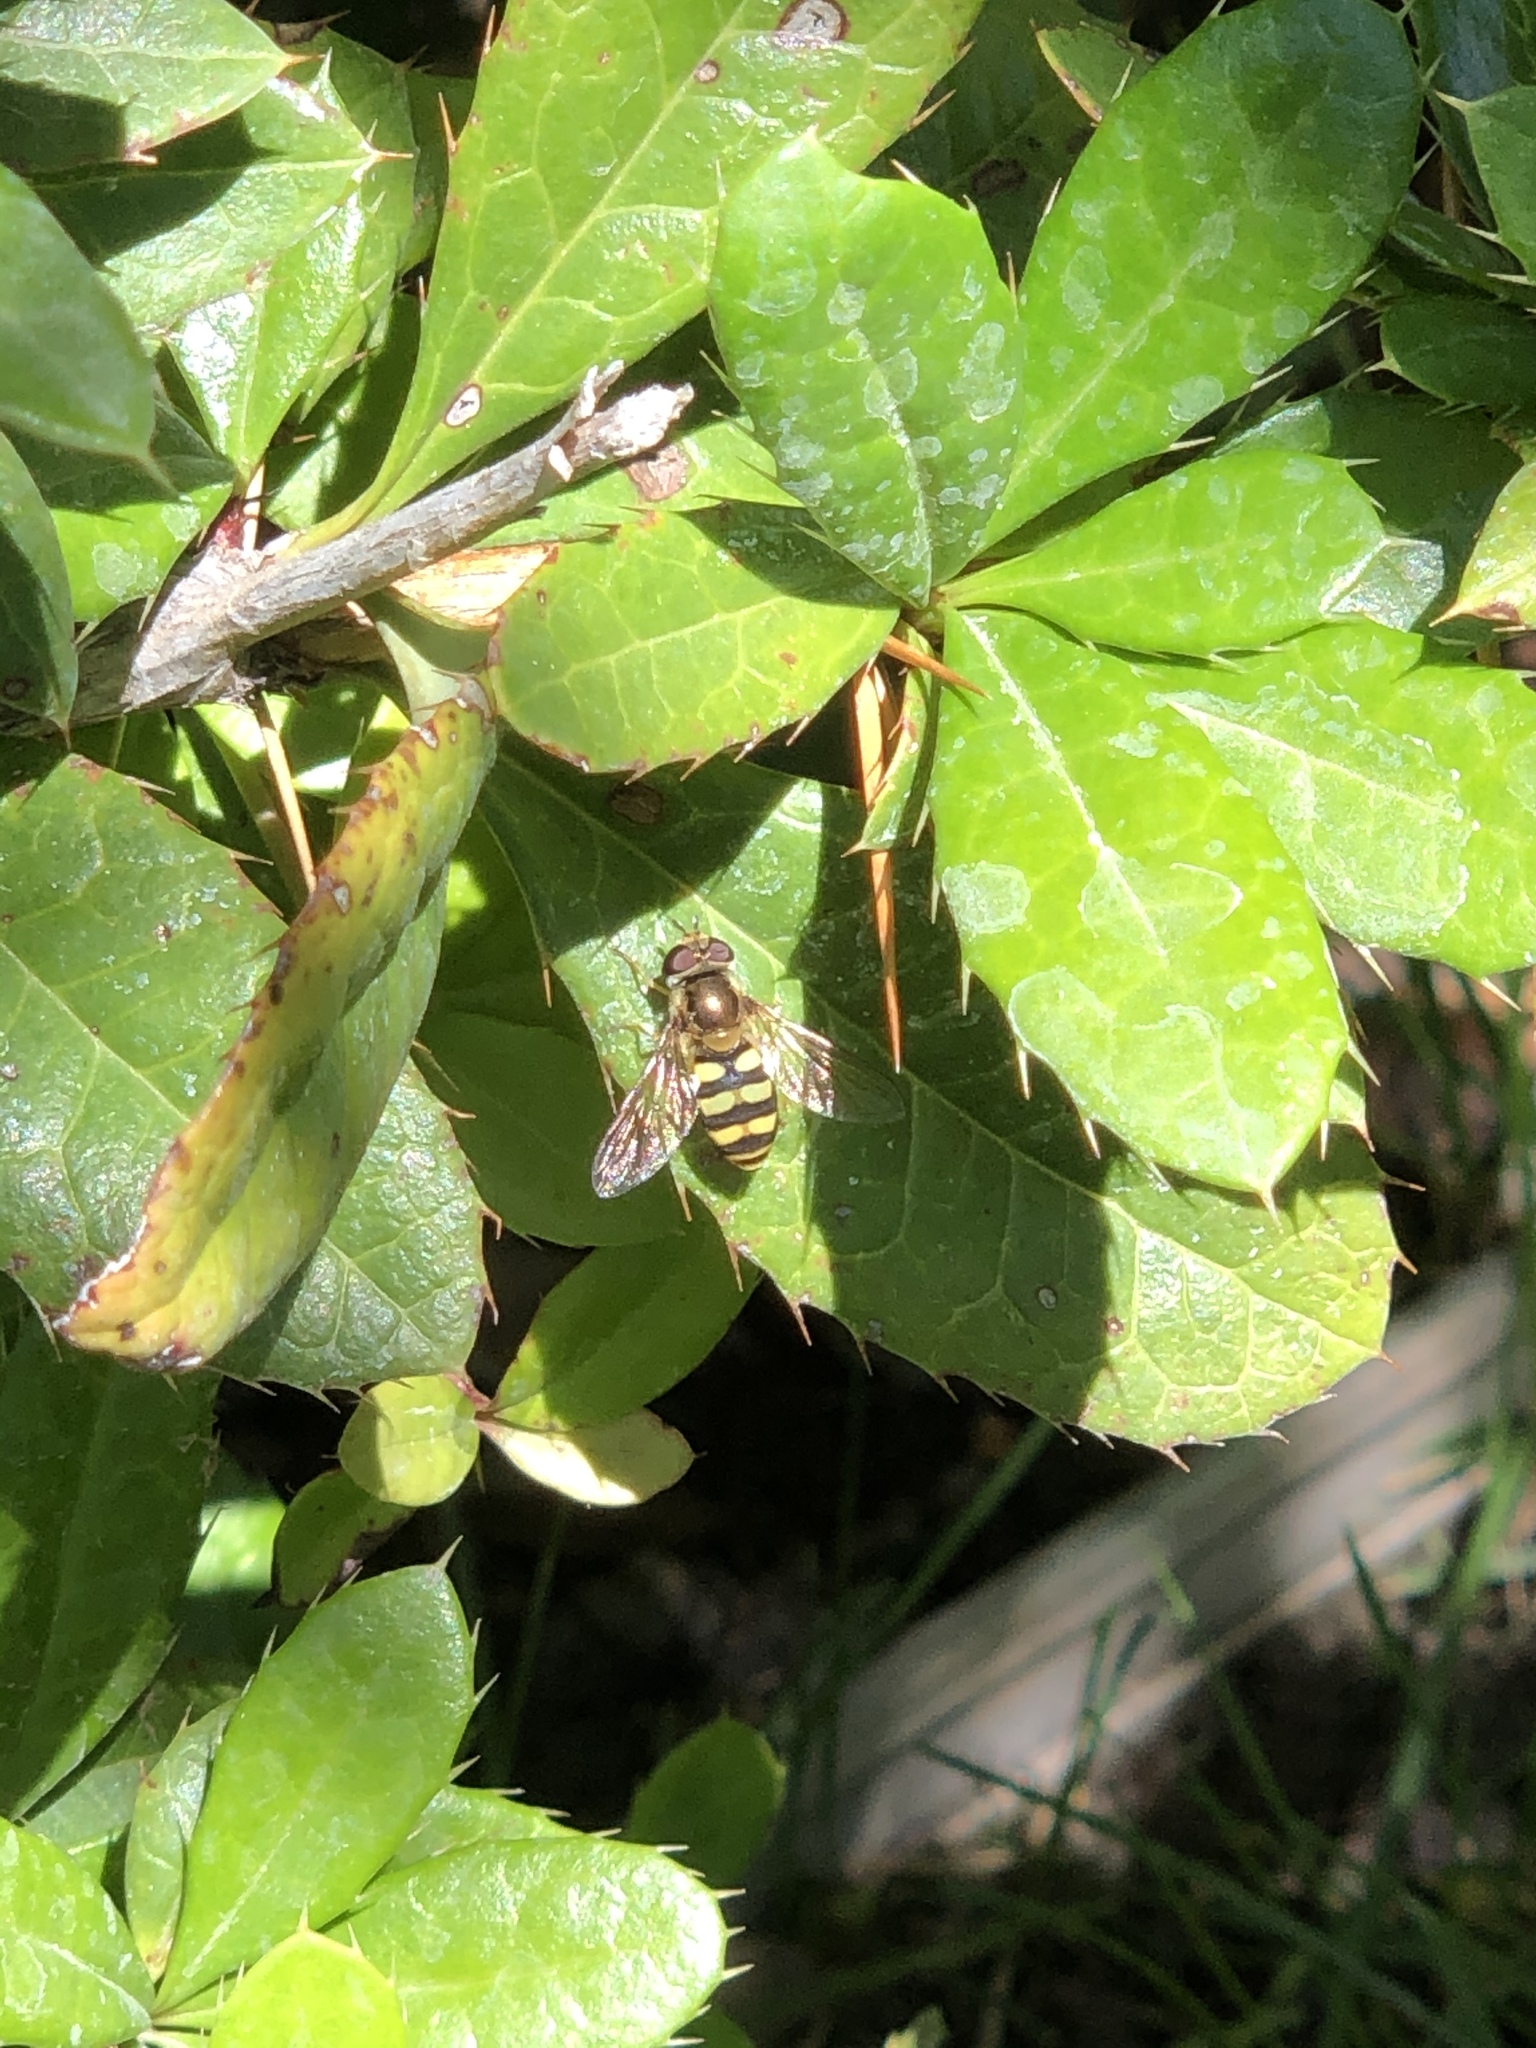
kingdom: Animalia
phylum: Arthropoda
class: Insecta
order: Diptera
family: Syrphidae
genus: Eupeodes
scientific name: Eupeodes fumipennis
